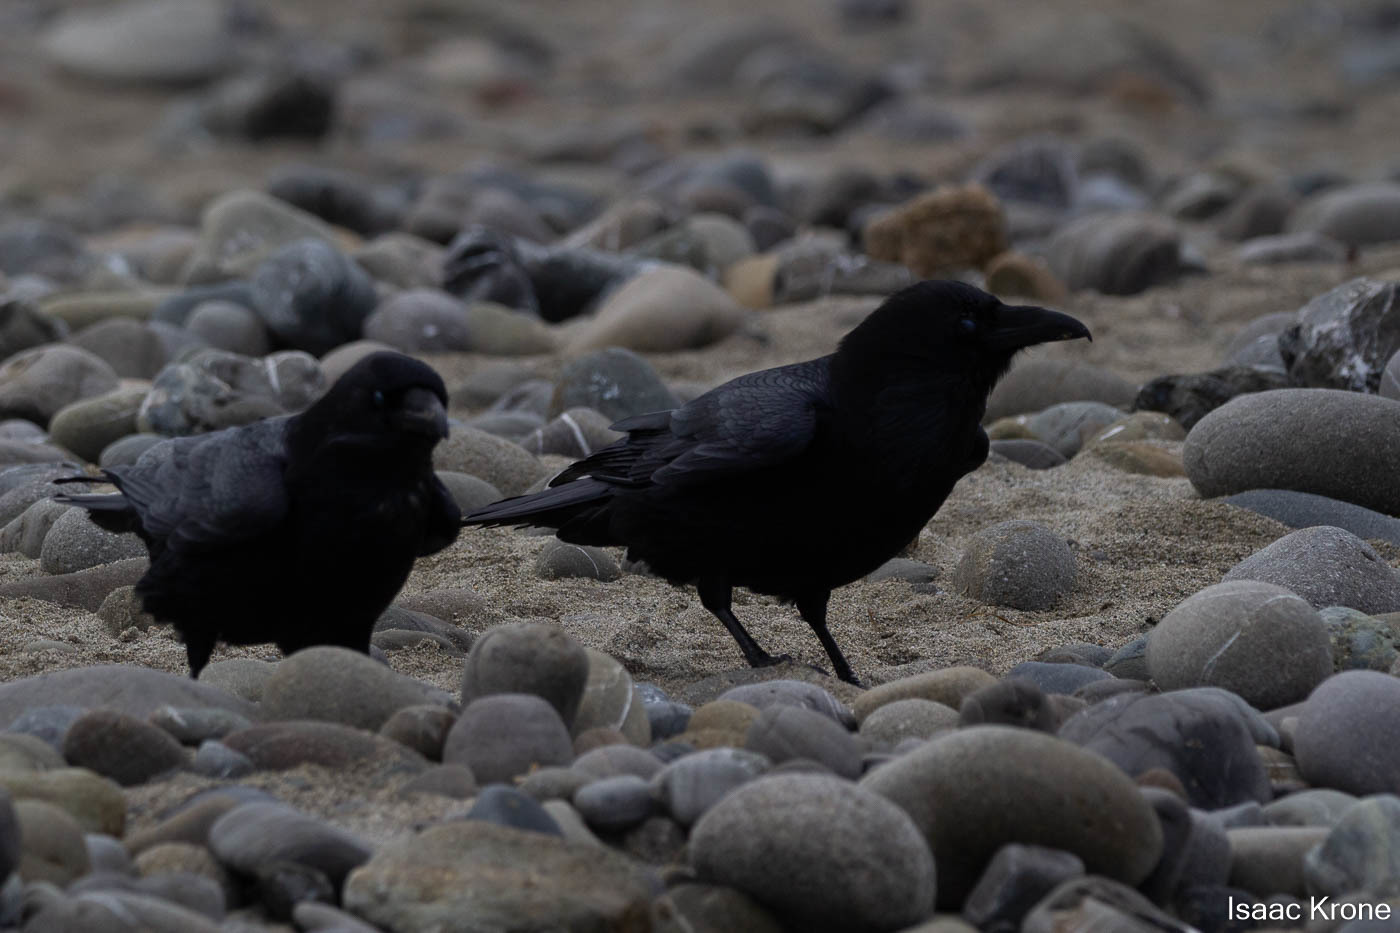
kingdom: Animalia
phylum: Chordata
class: Aves
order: Passeriformes
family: Corvidae
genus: Corvus
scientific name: Corvus corax
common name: Common raven
